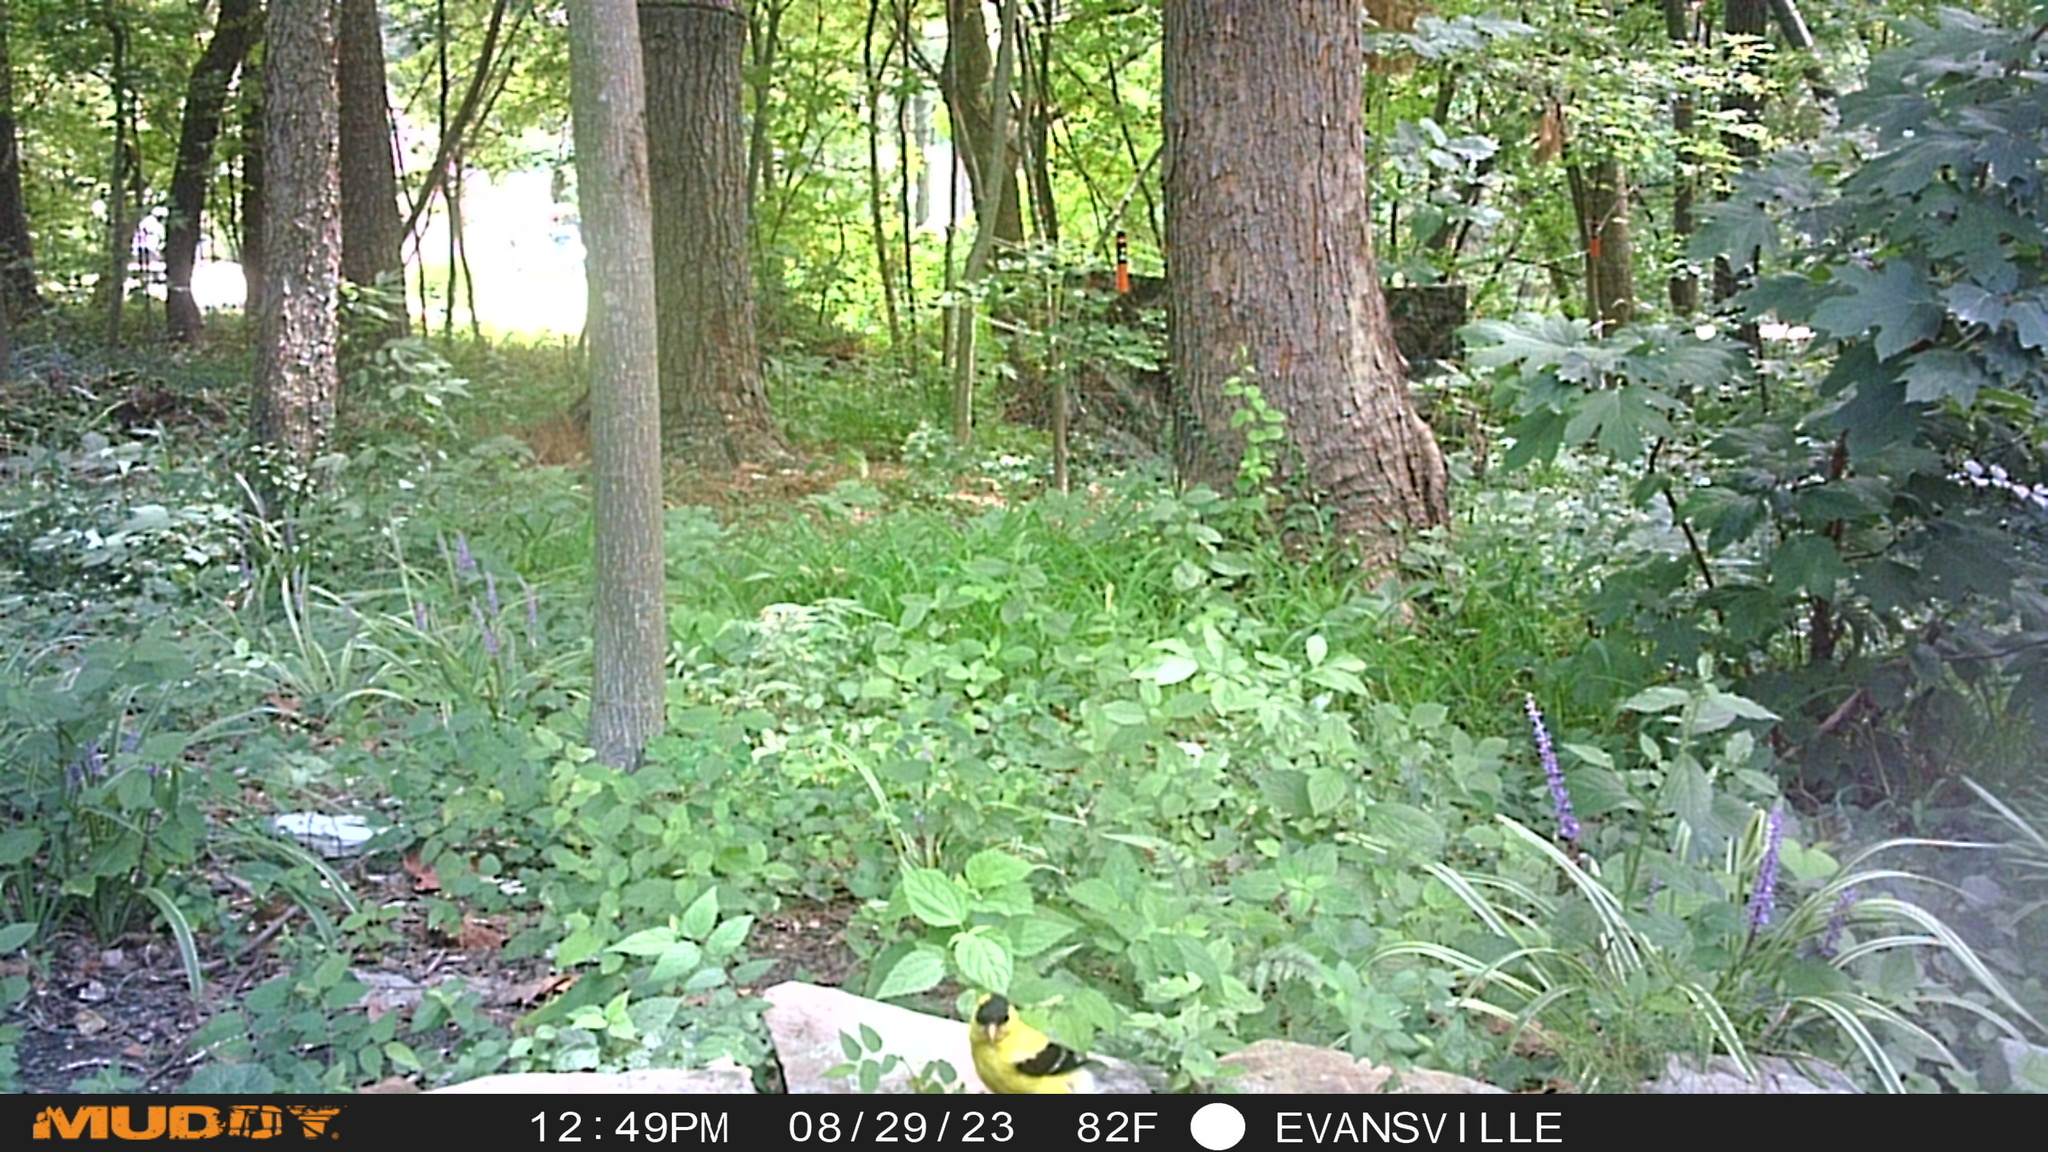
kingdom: Animalia
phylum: Chordata
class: Aves
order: Passeriformes
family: Fringillidae
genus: Spinus
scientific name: Spinus tristis
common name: American goldfinch
